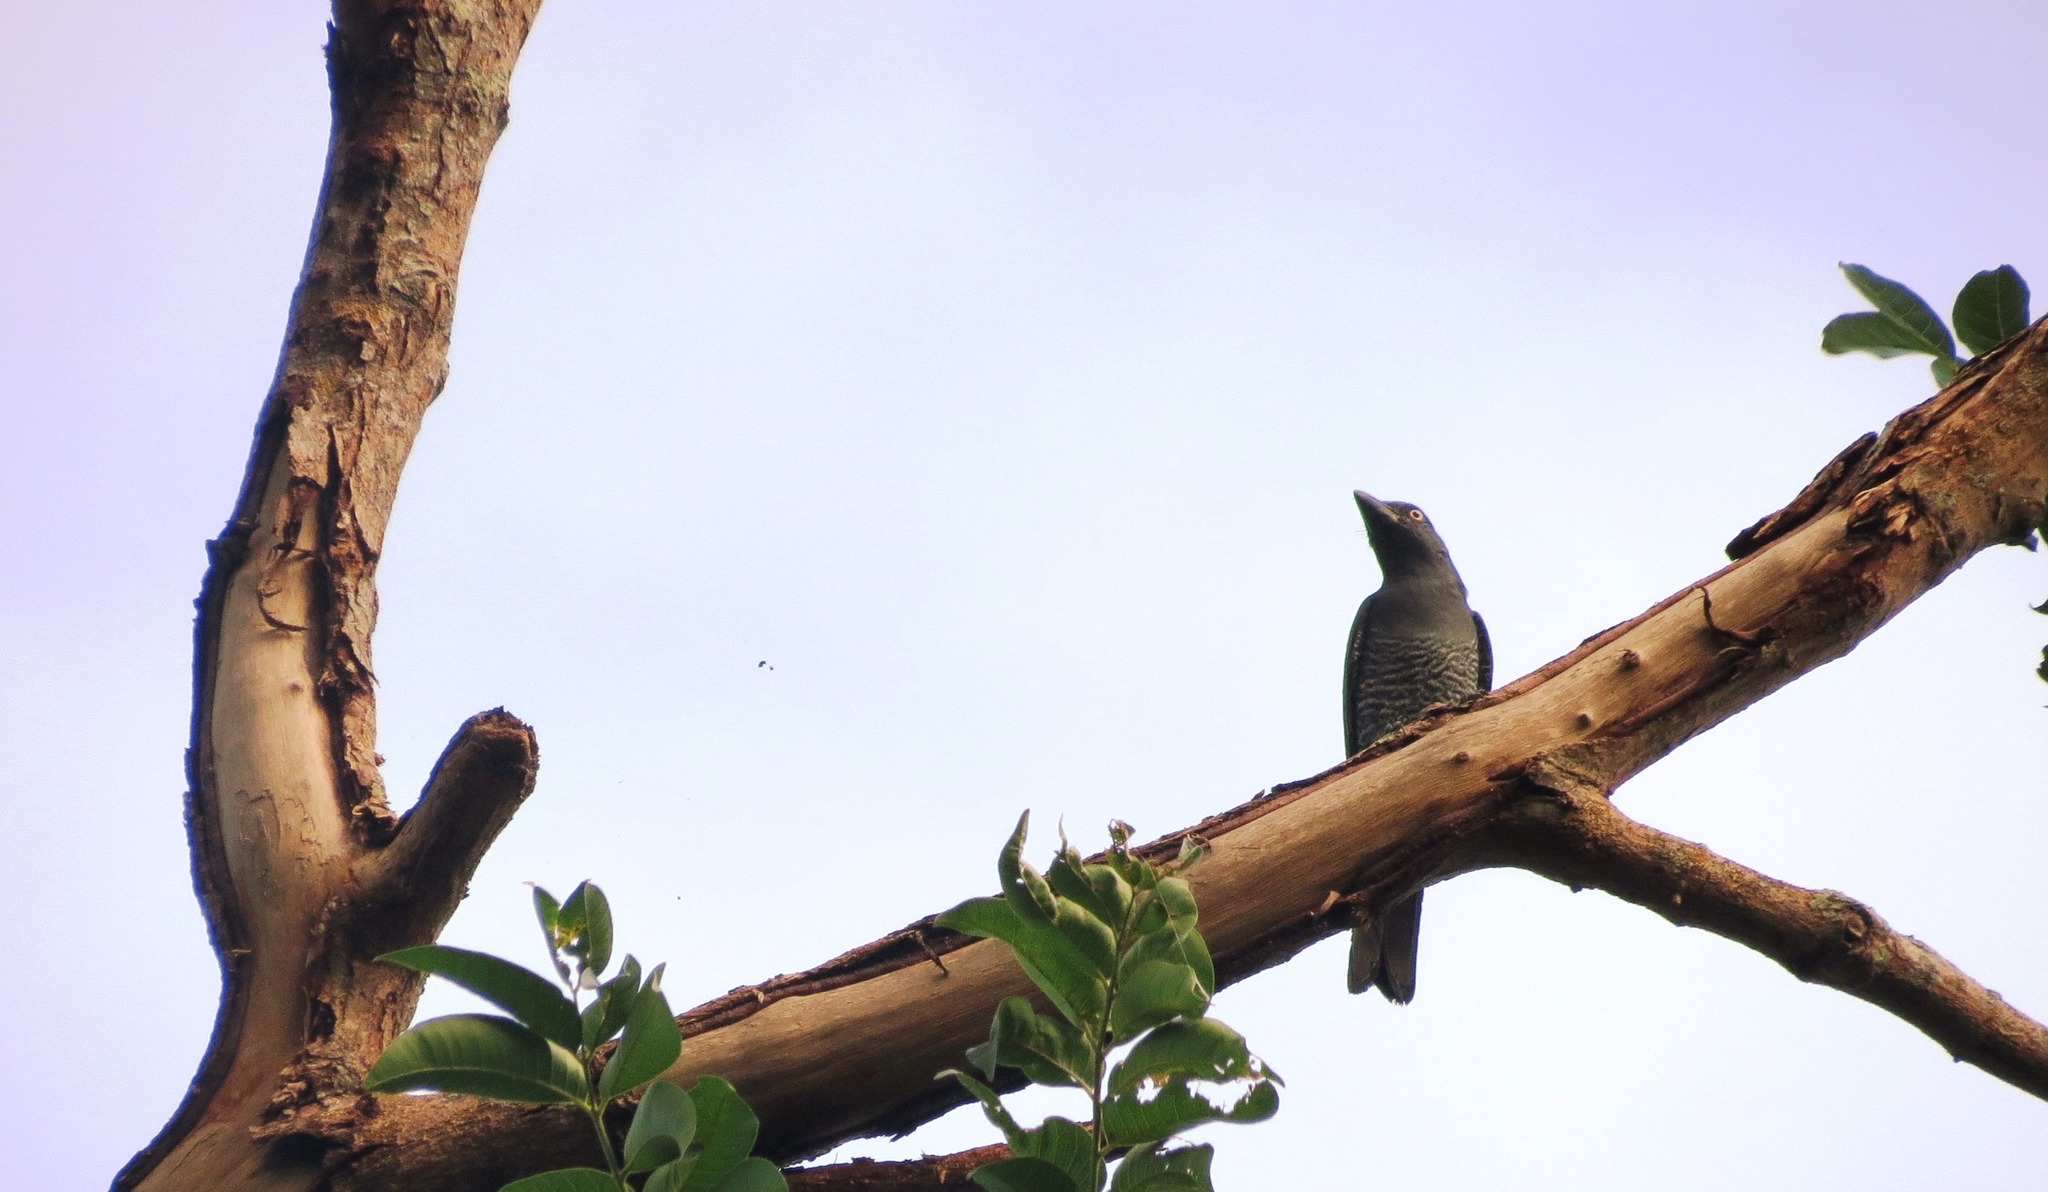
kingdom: Animalia
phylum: Chordata
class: Aves
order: Passeriformes
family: Campephagidae
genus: Coracina
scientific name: Coracina striata
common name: Bar-bellied cuckooshrike
